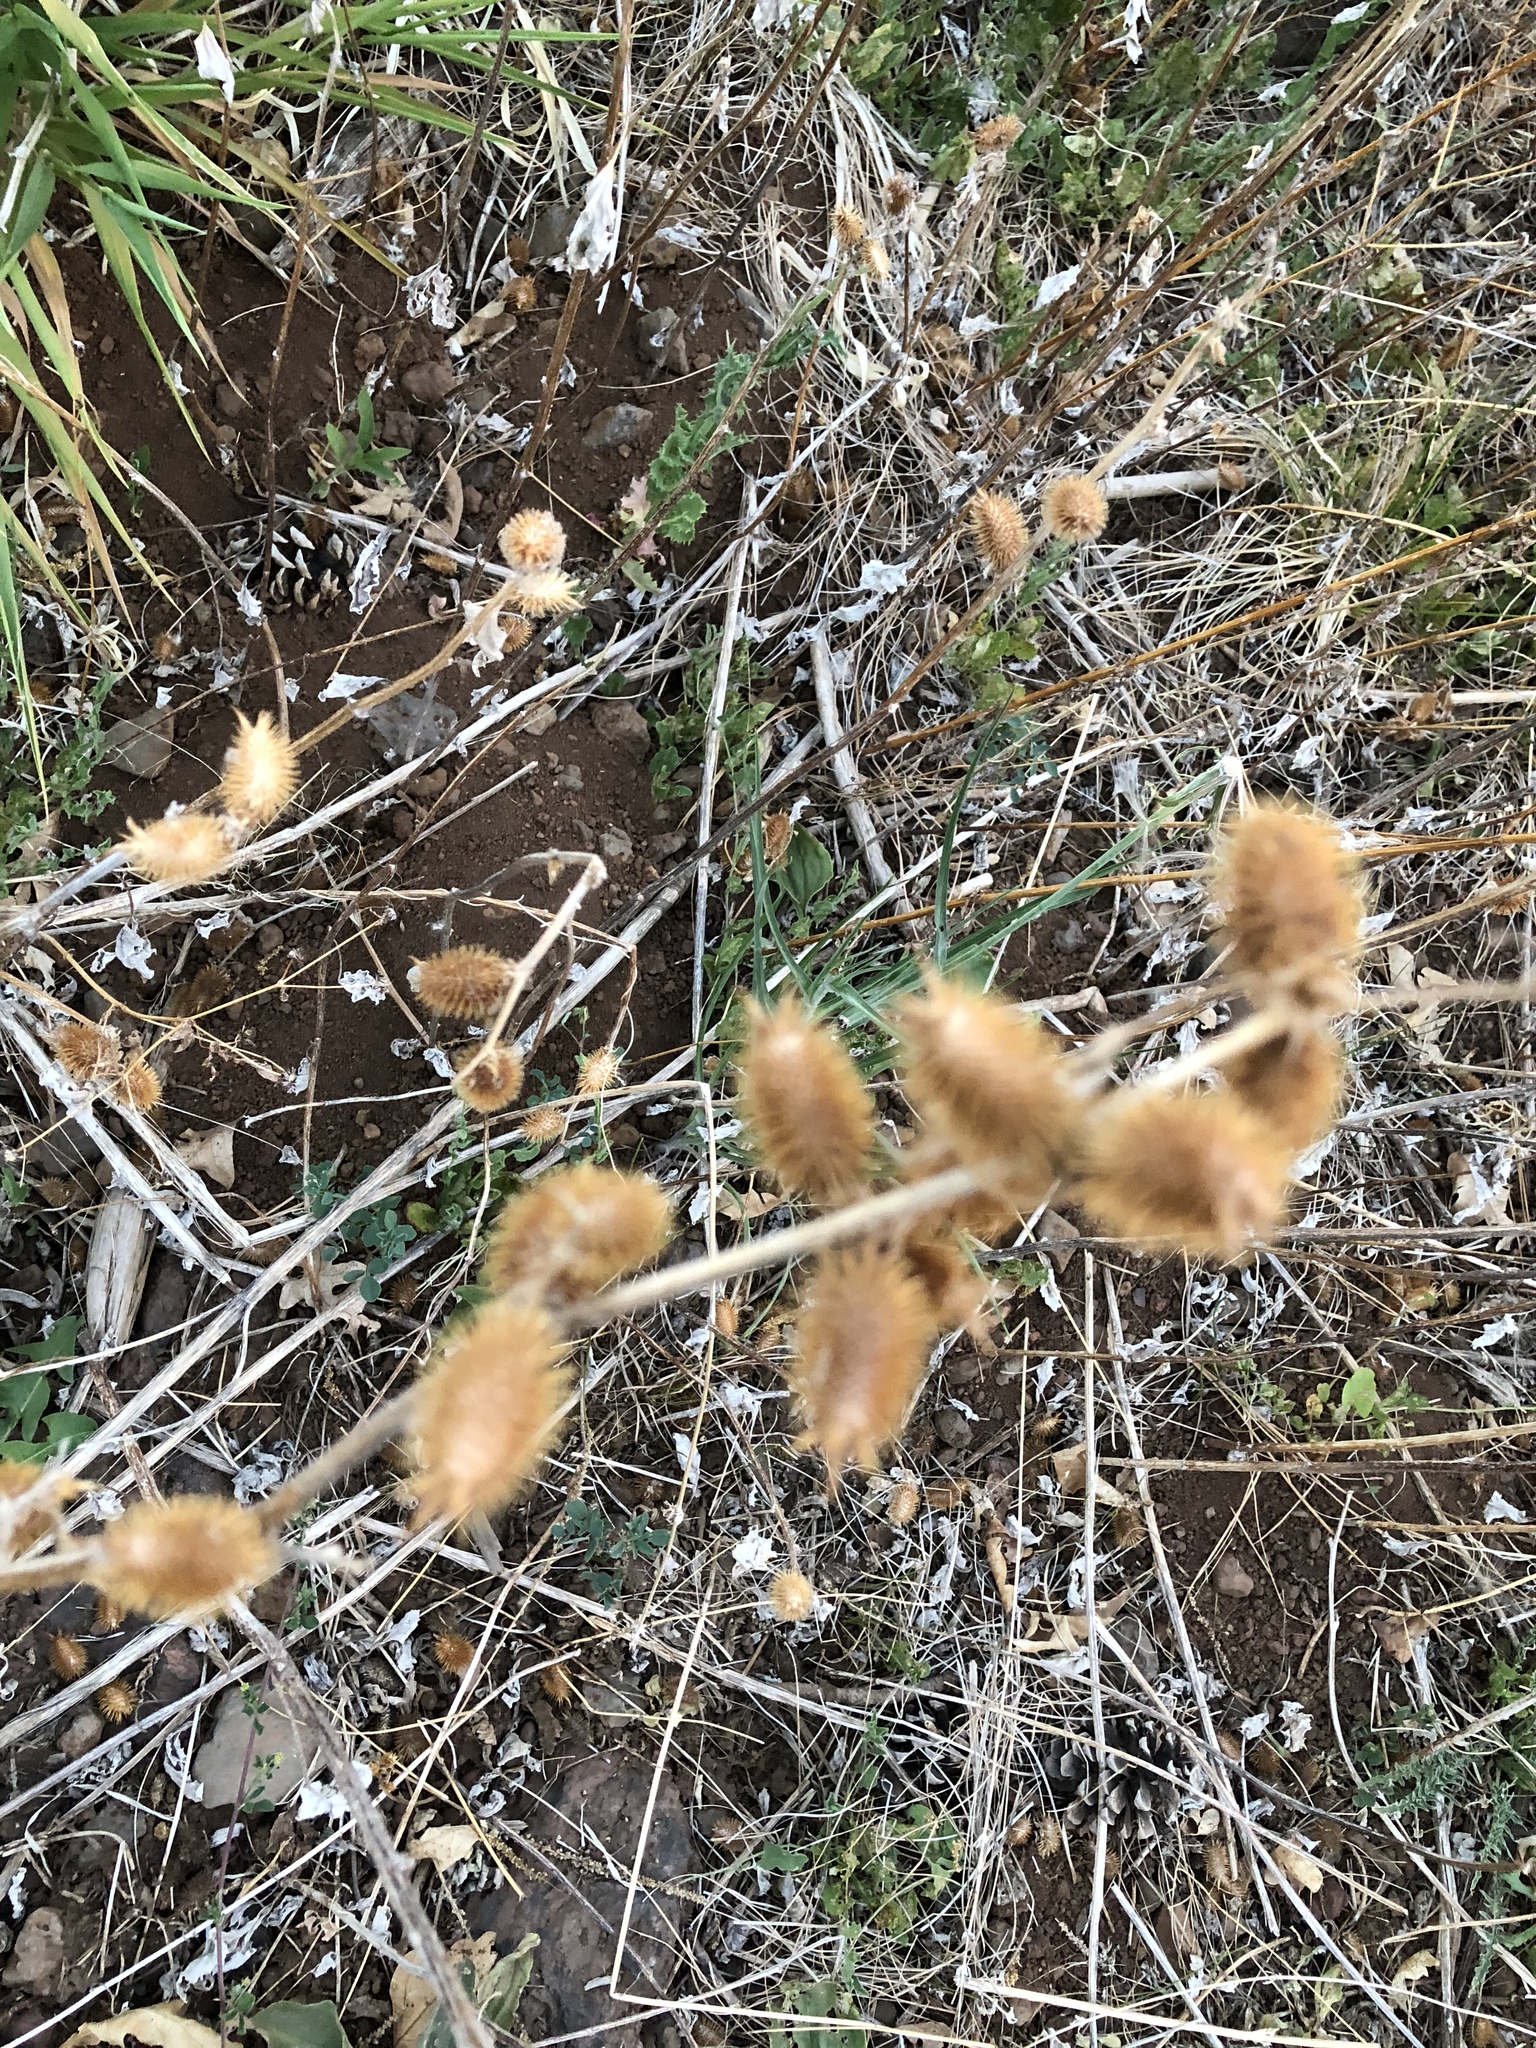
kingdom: Plantae
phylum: Tracheophyta
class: Magnoliopsida
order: Asterales
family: Asteraceae
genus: Xanthium
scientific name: Xanthium strumarium
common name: Rough cocklebur
